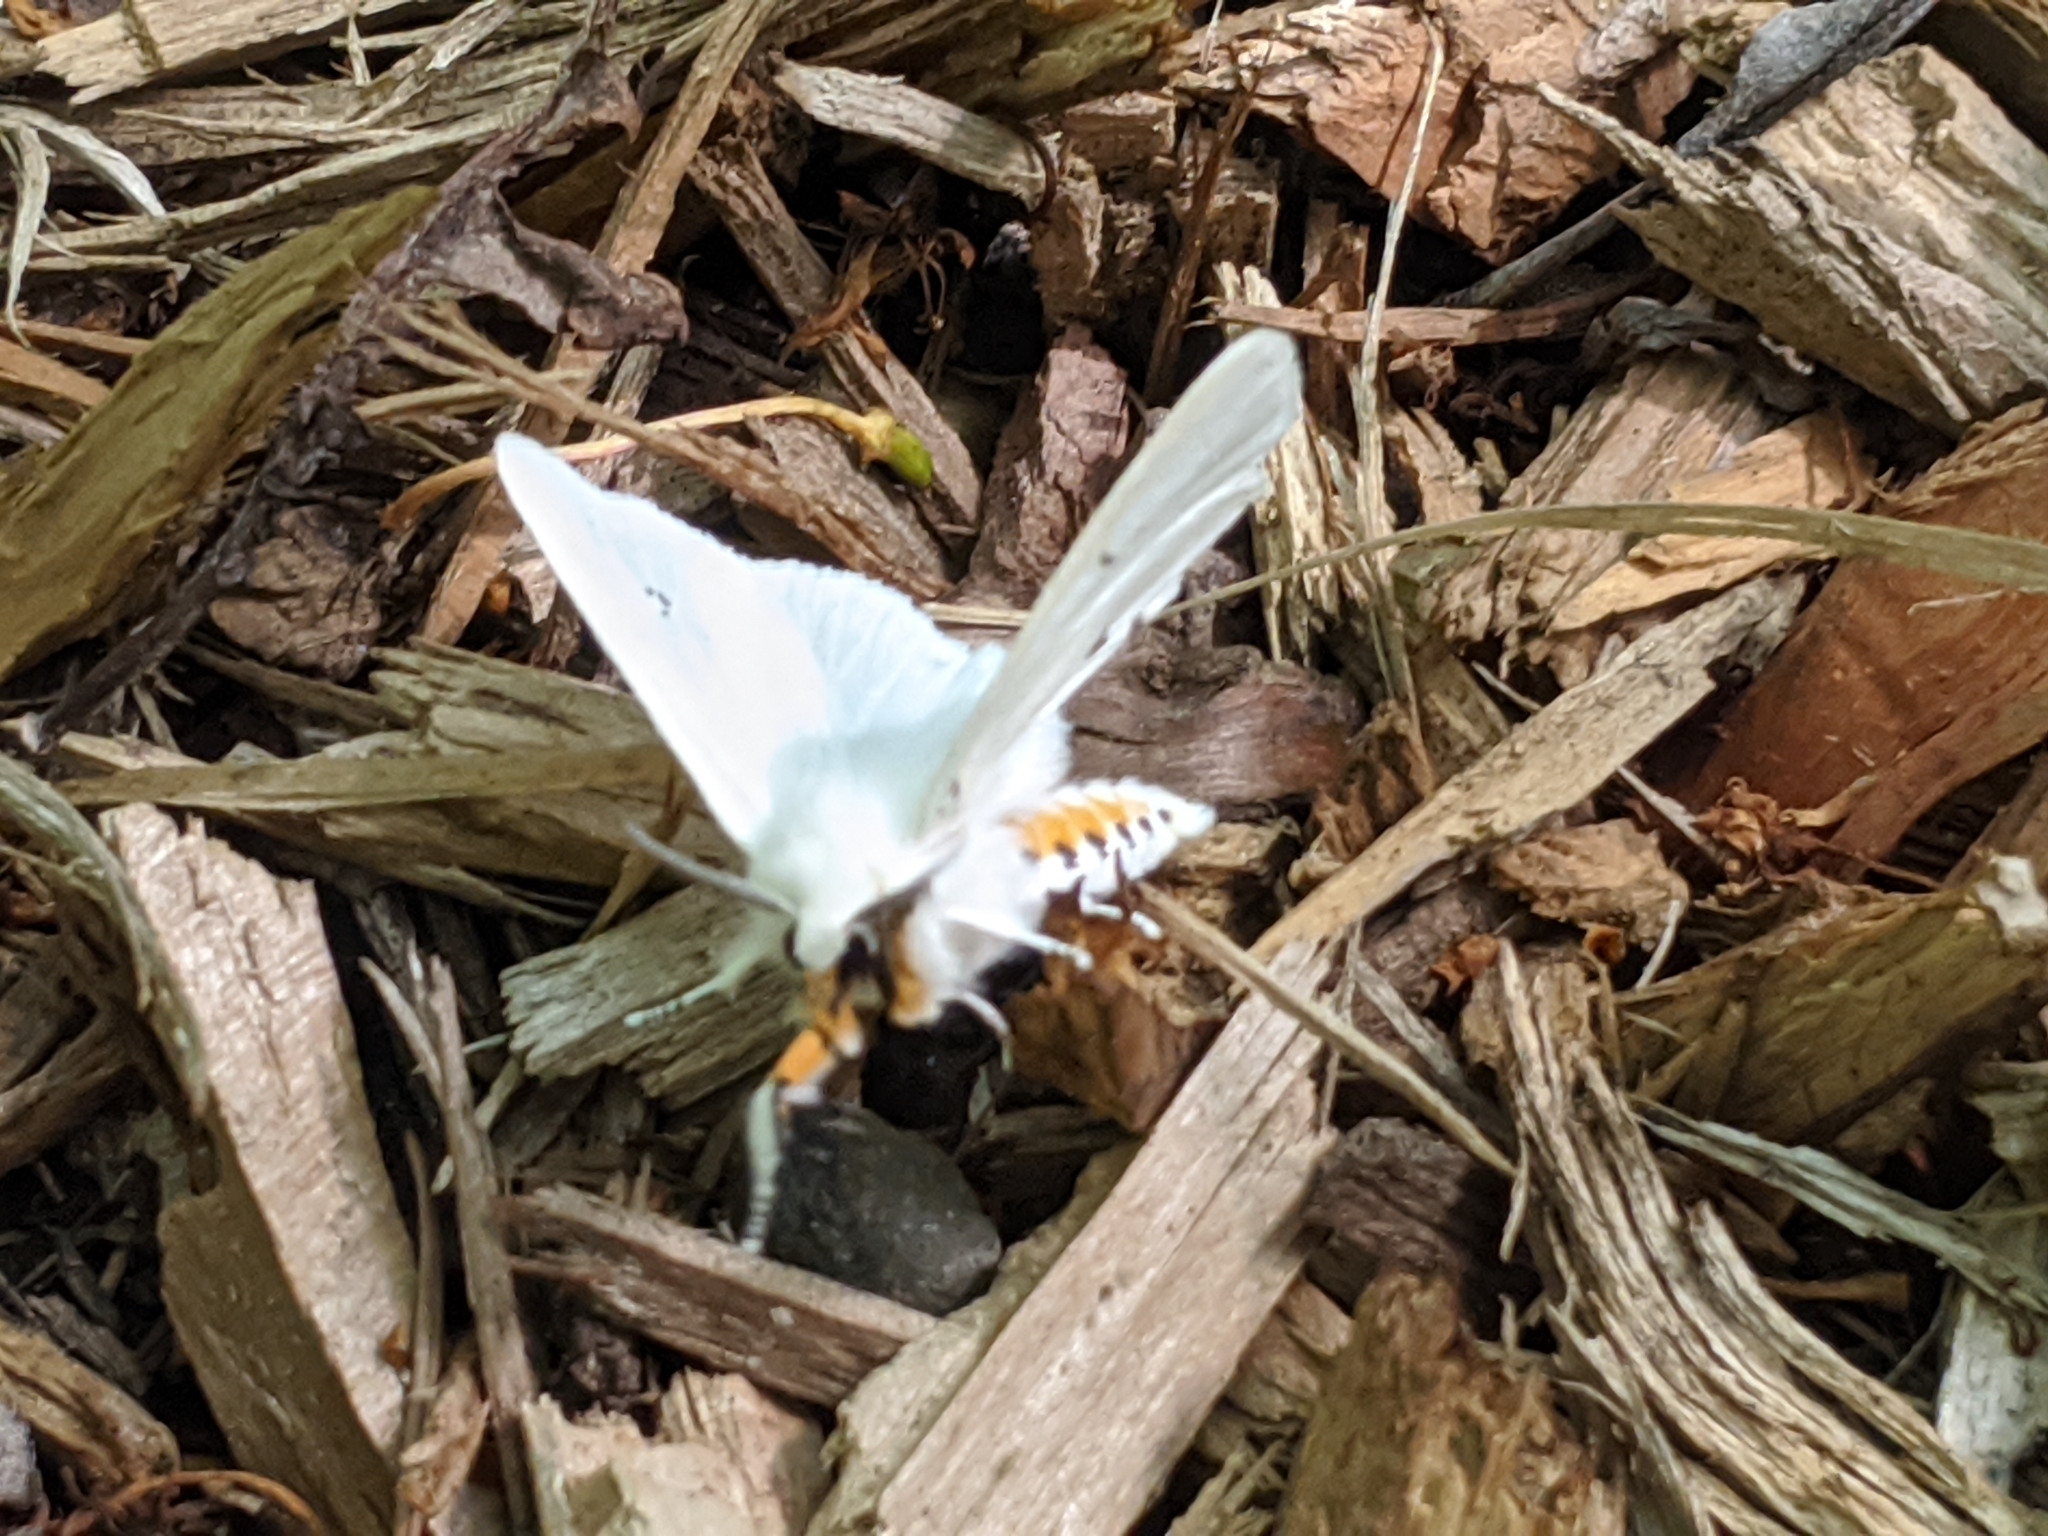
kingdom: Animalia
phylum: Arthropoda
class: Insecta
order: Lepidoptera
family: Erebidae
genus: Spilosoma
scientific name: Spilosoma virginica
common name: Virginia tiger moth
